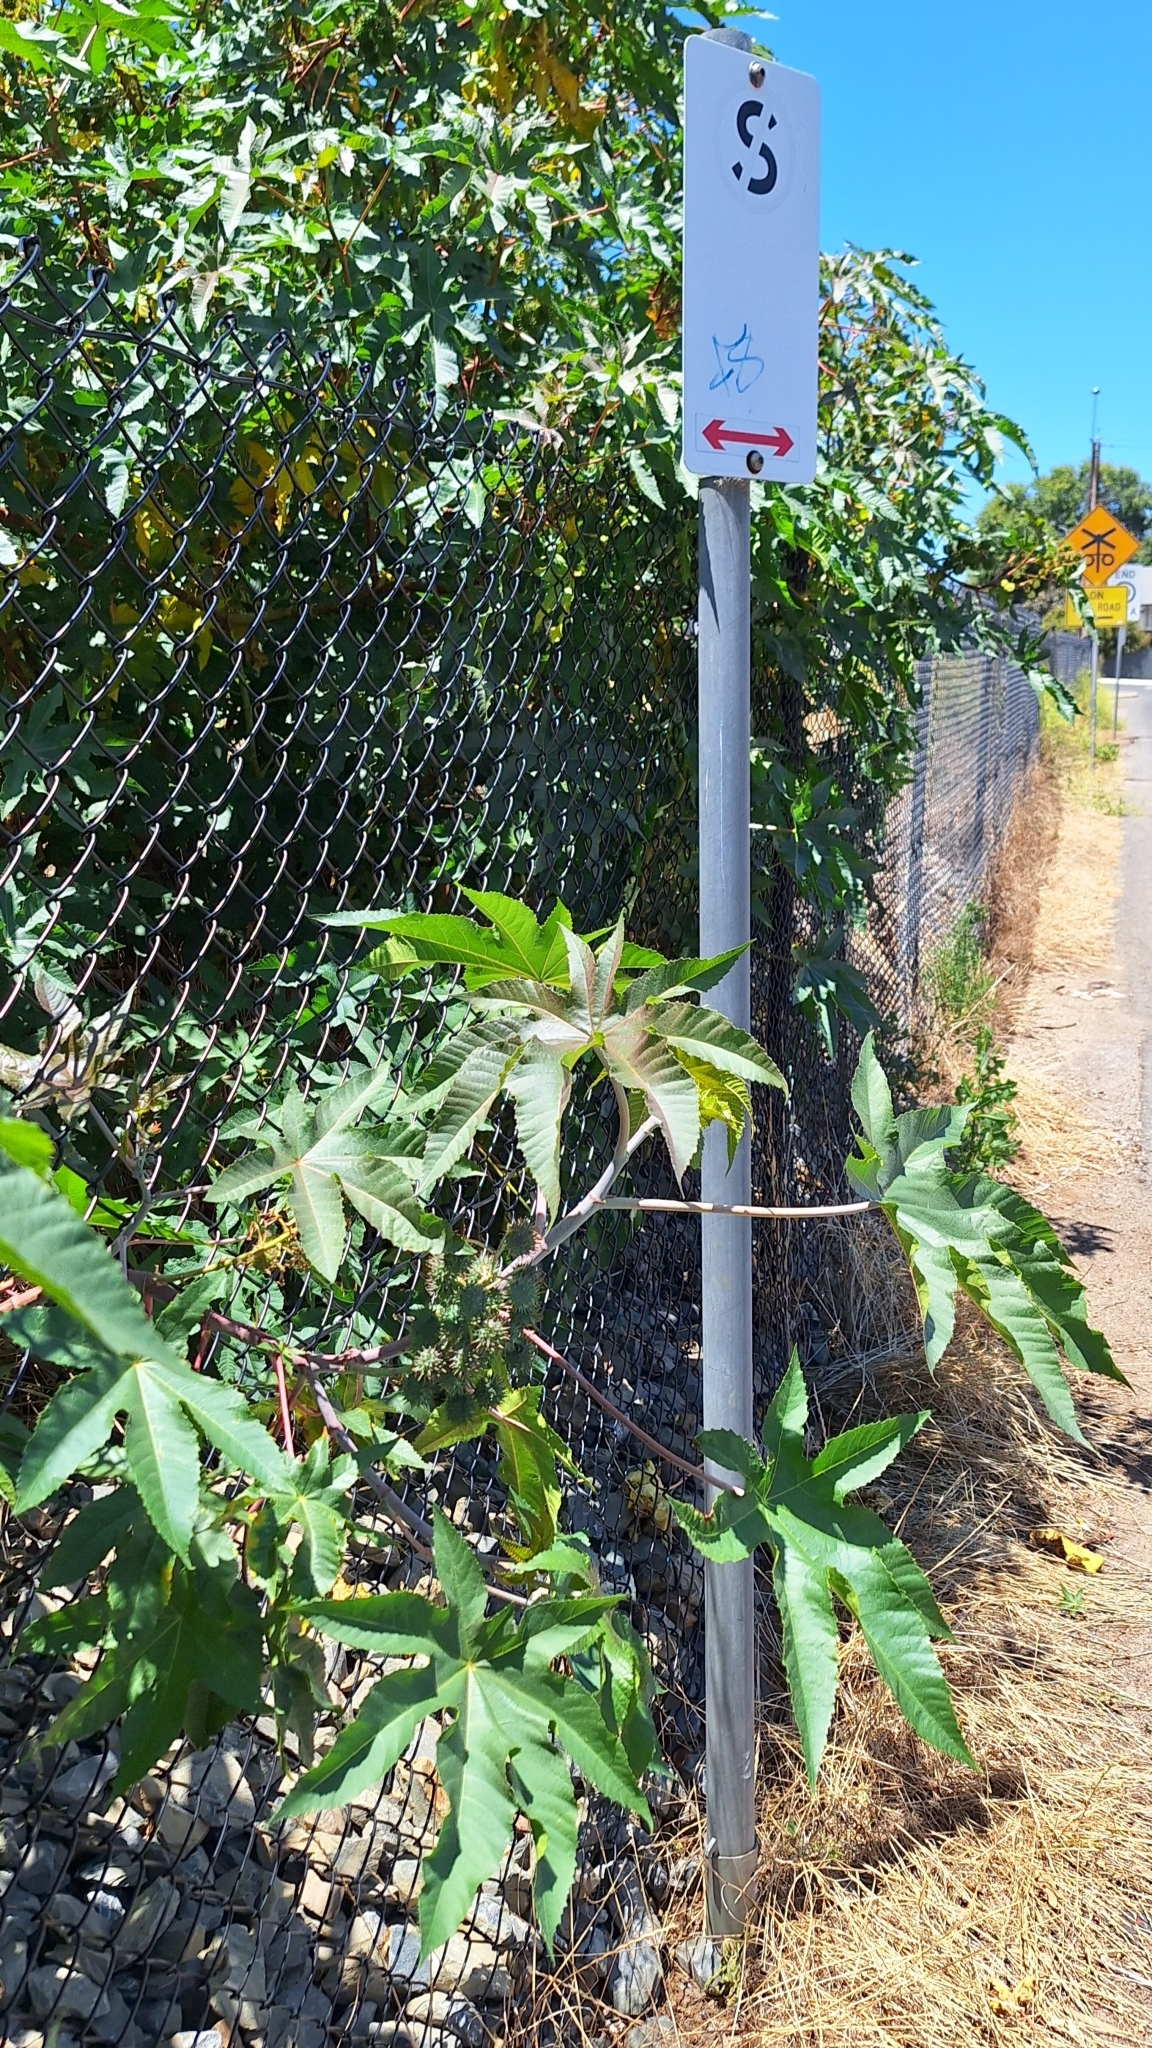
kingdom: Plantae
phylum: Tracheophyta
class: Magnoliopsida
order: Malpighiales
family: Euphorbiaceae
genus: Ricinus
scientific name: Ricinus communis
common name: Castor-oil-plant
